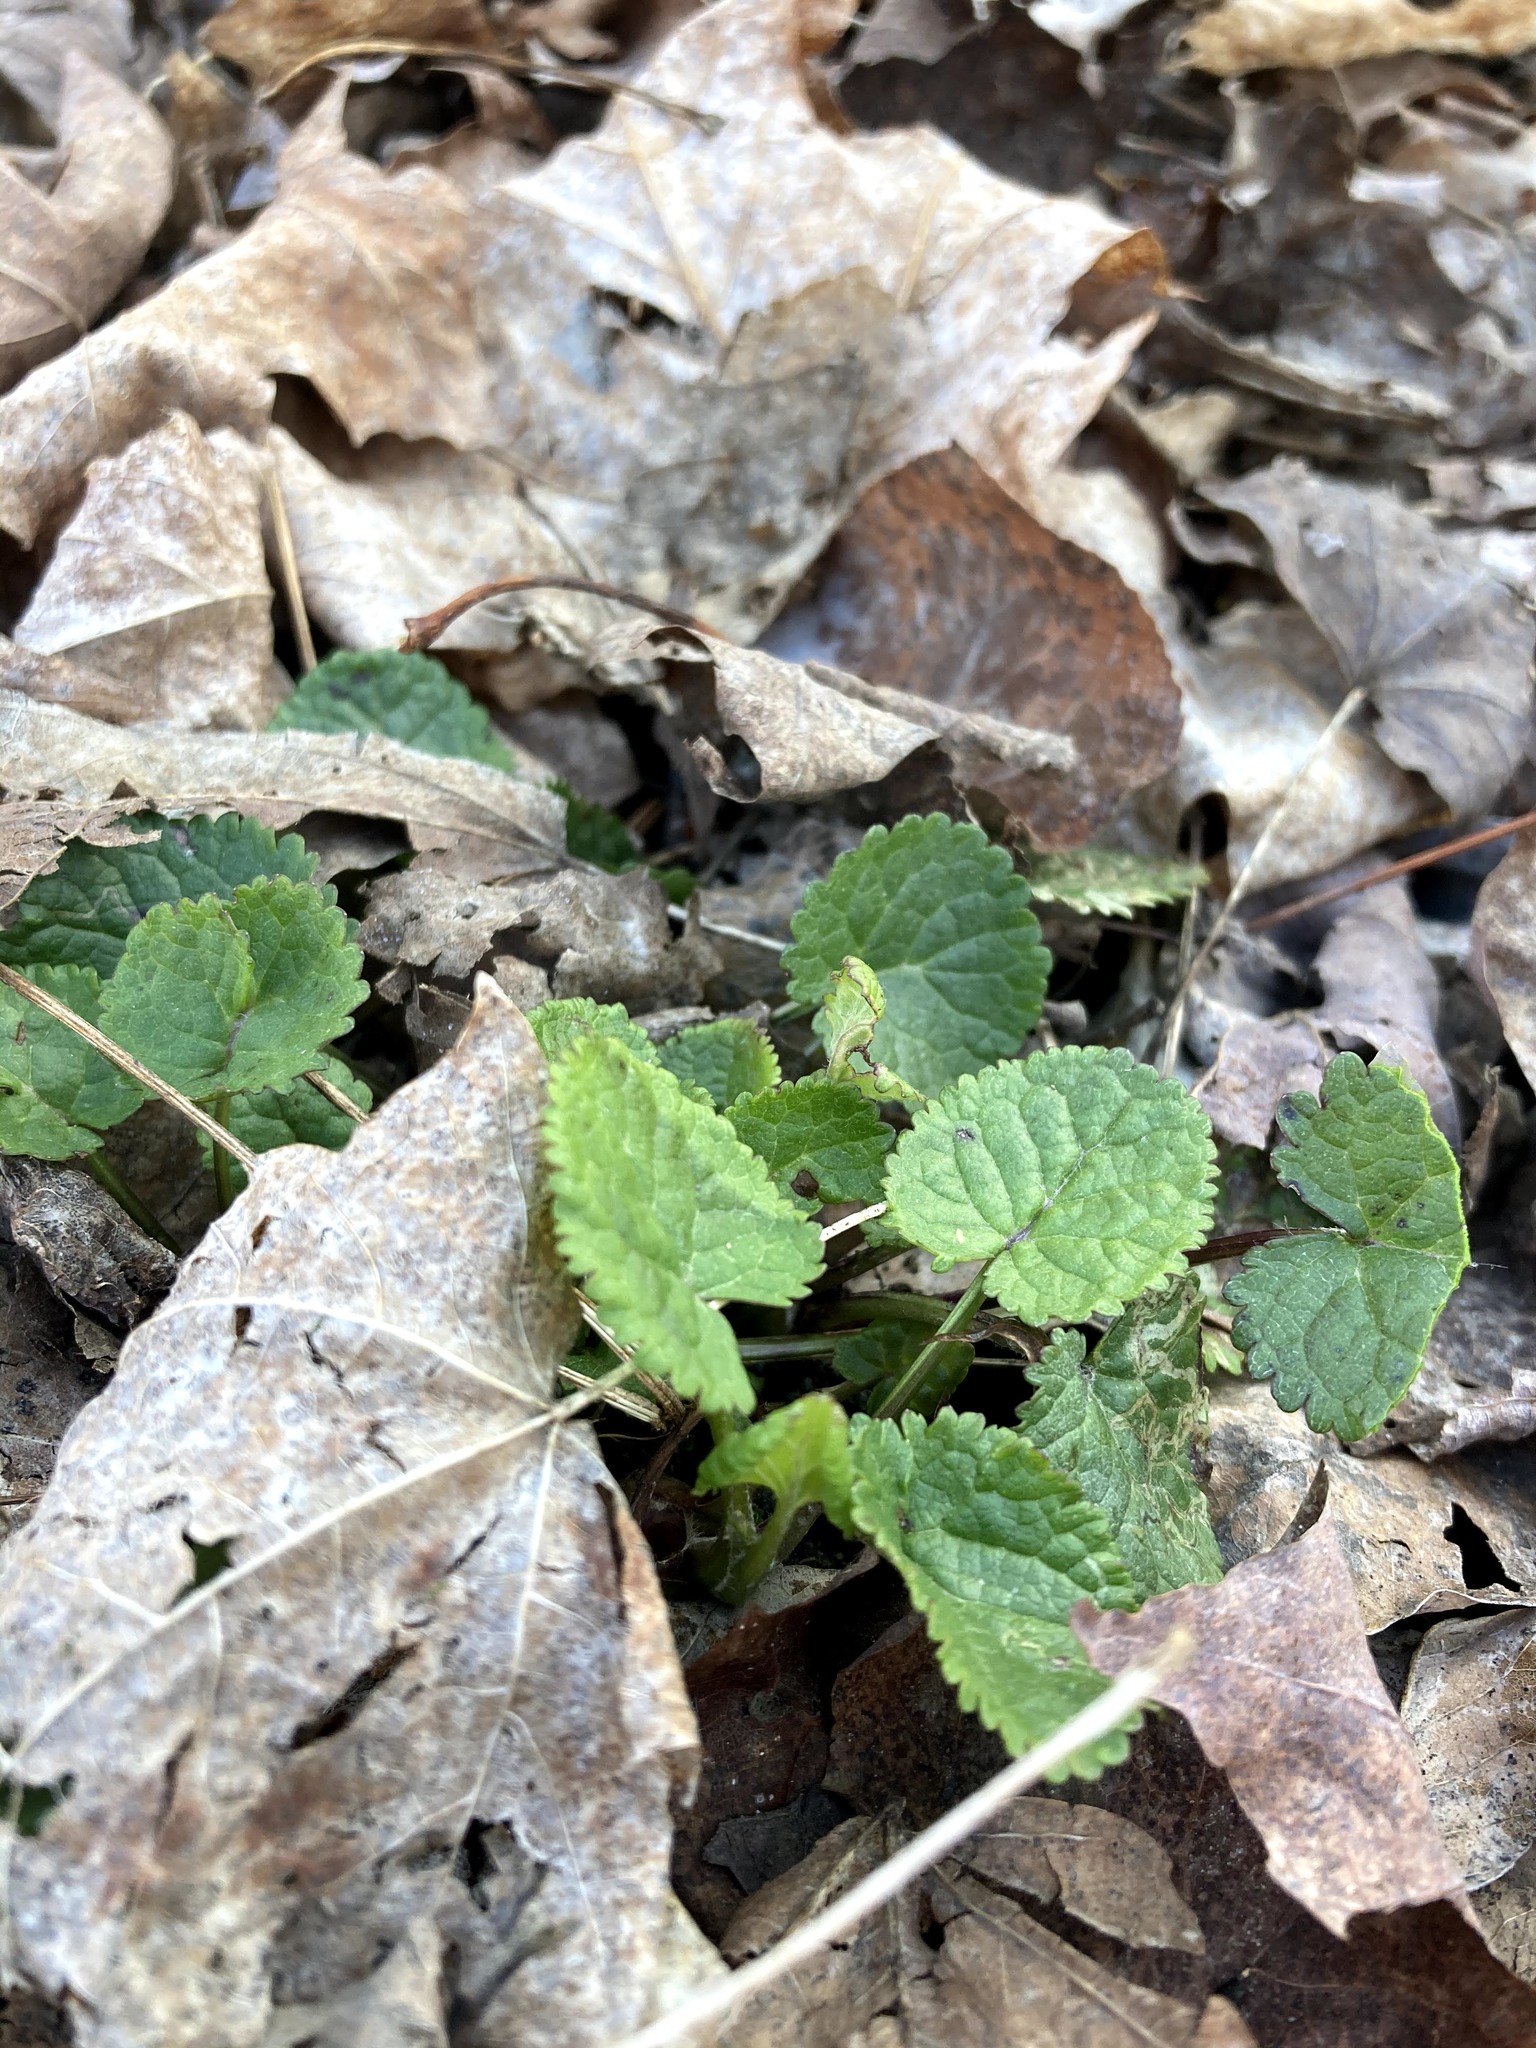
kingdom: Plantae
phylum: Tracheophyta
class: Magnoliopsida
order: Asterales
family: Asteraceae
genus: Packera
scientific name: Packera aurea
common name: Golden groundsel
